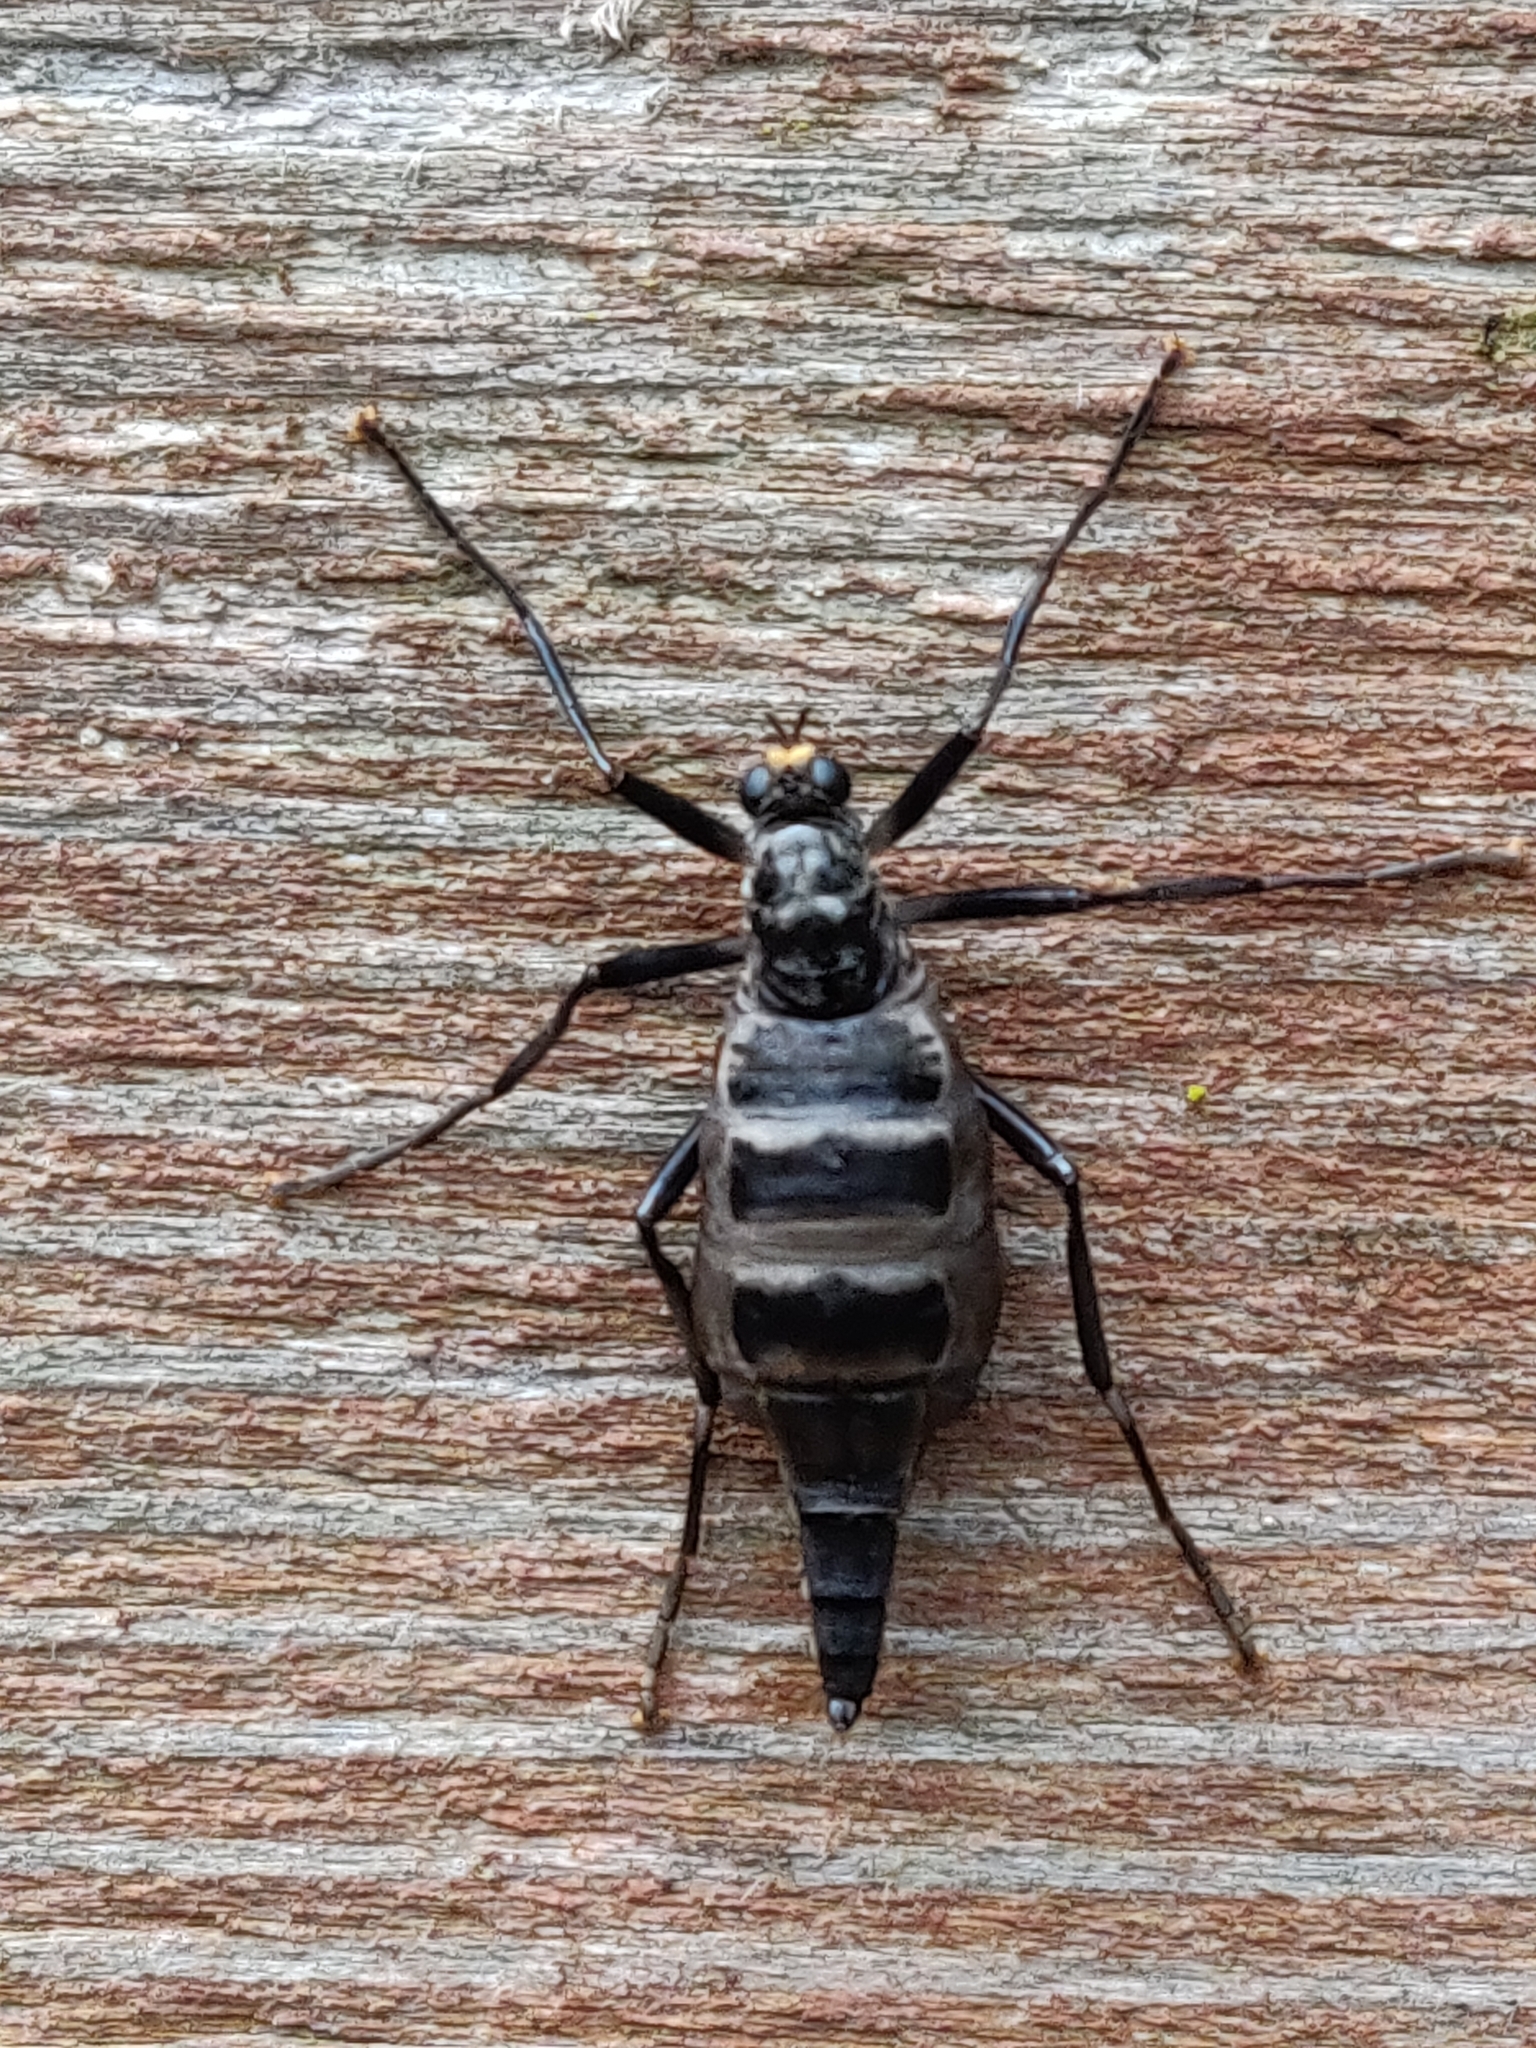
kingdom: Animalia
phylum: Arthropoda
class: Insecta
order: Diptera
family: Stratiomyidae
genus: Boreoides
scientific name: Boreoides subulatus
